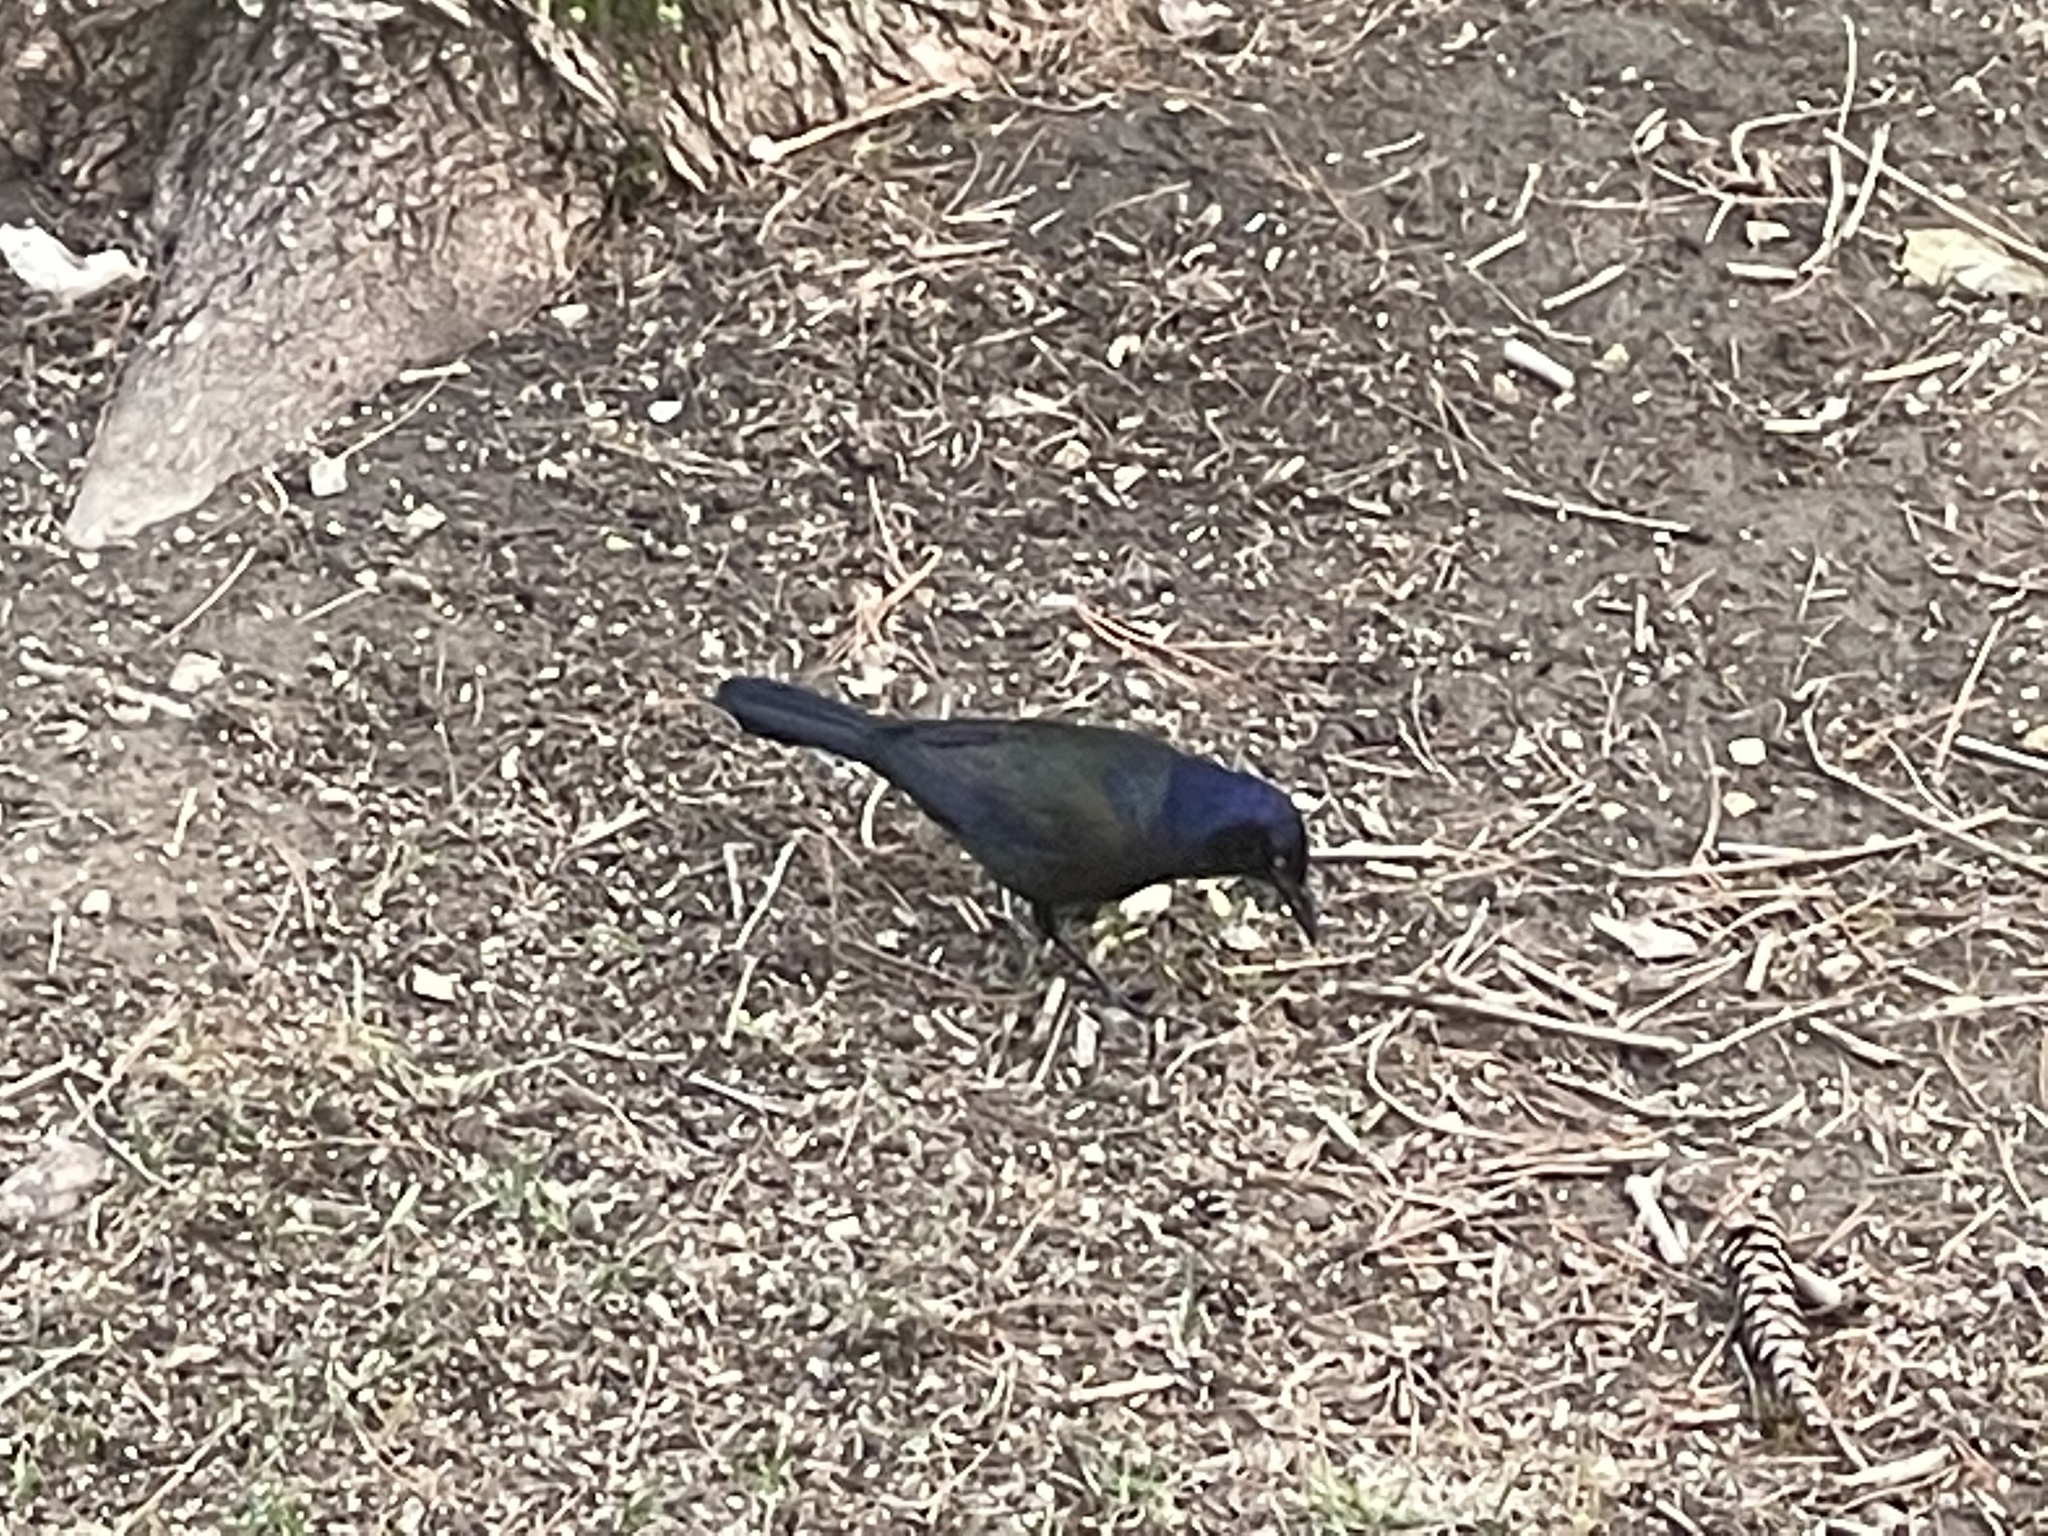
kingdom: Animalia
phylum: Chordata
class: Aves
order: Passeriformes
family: Icteridae
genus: Quiscalus
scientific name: Quiscalus quiscula
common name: Common grackle
